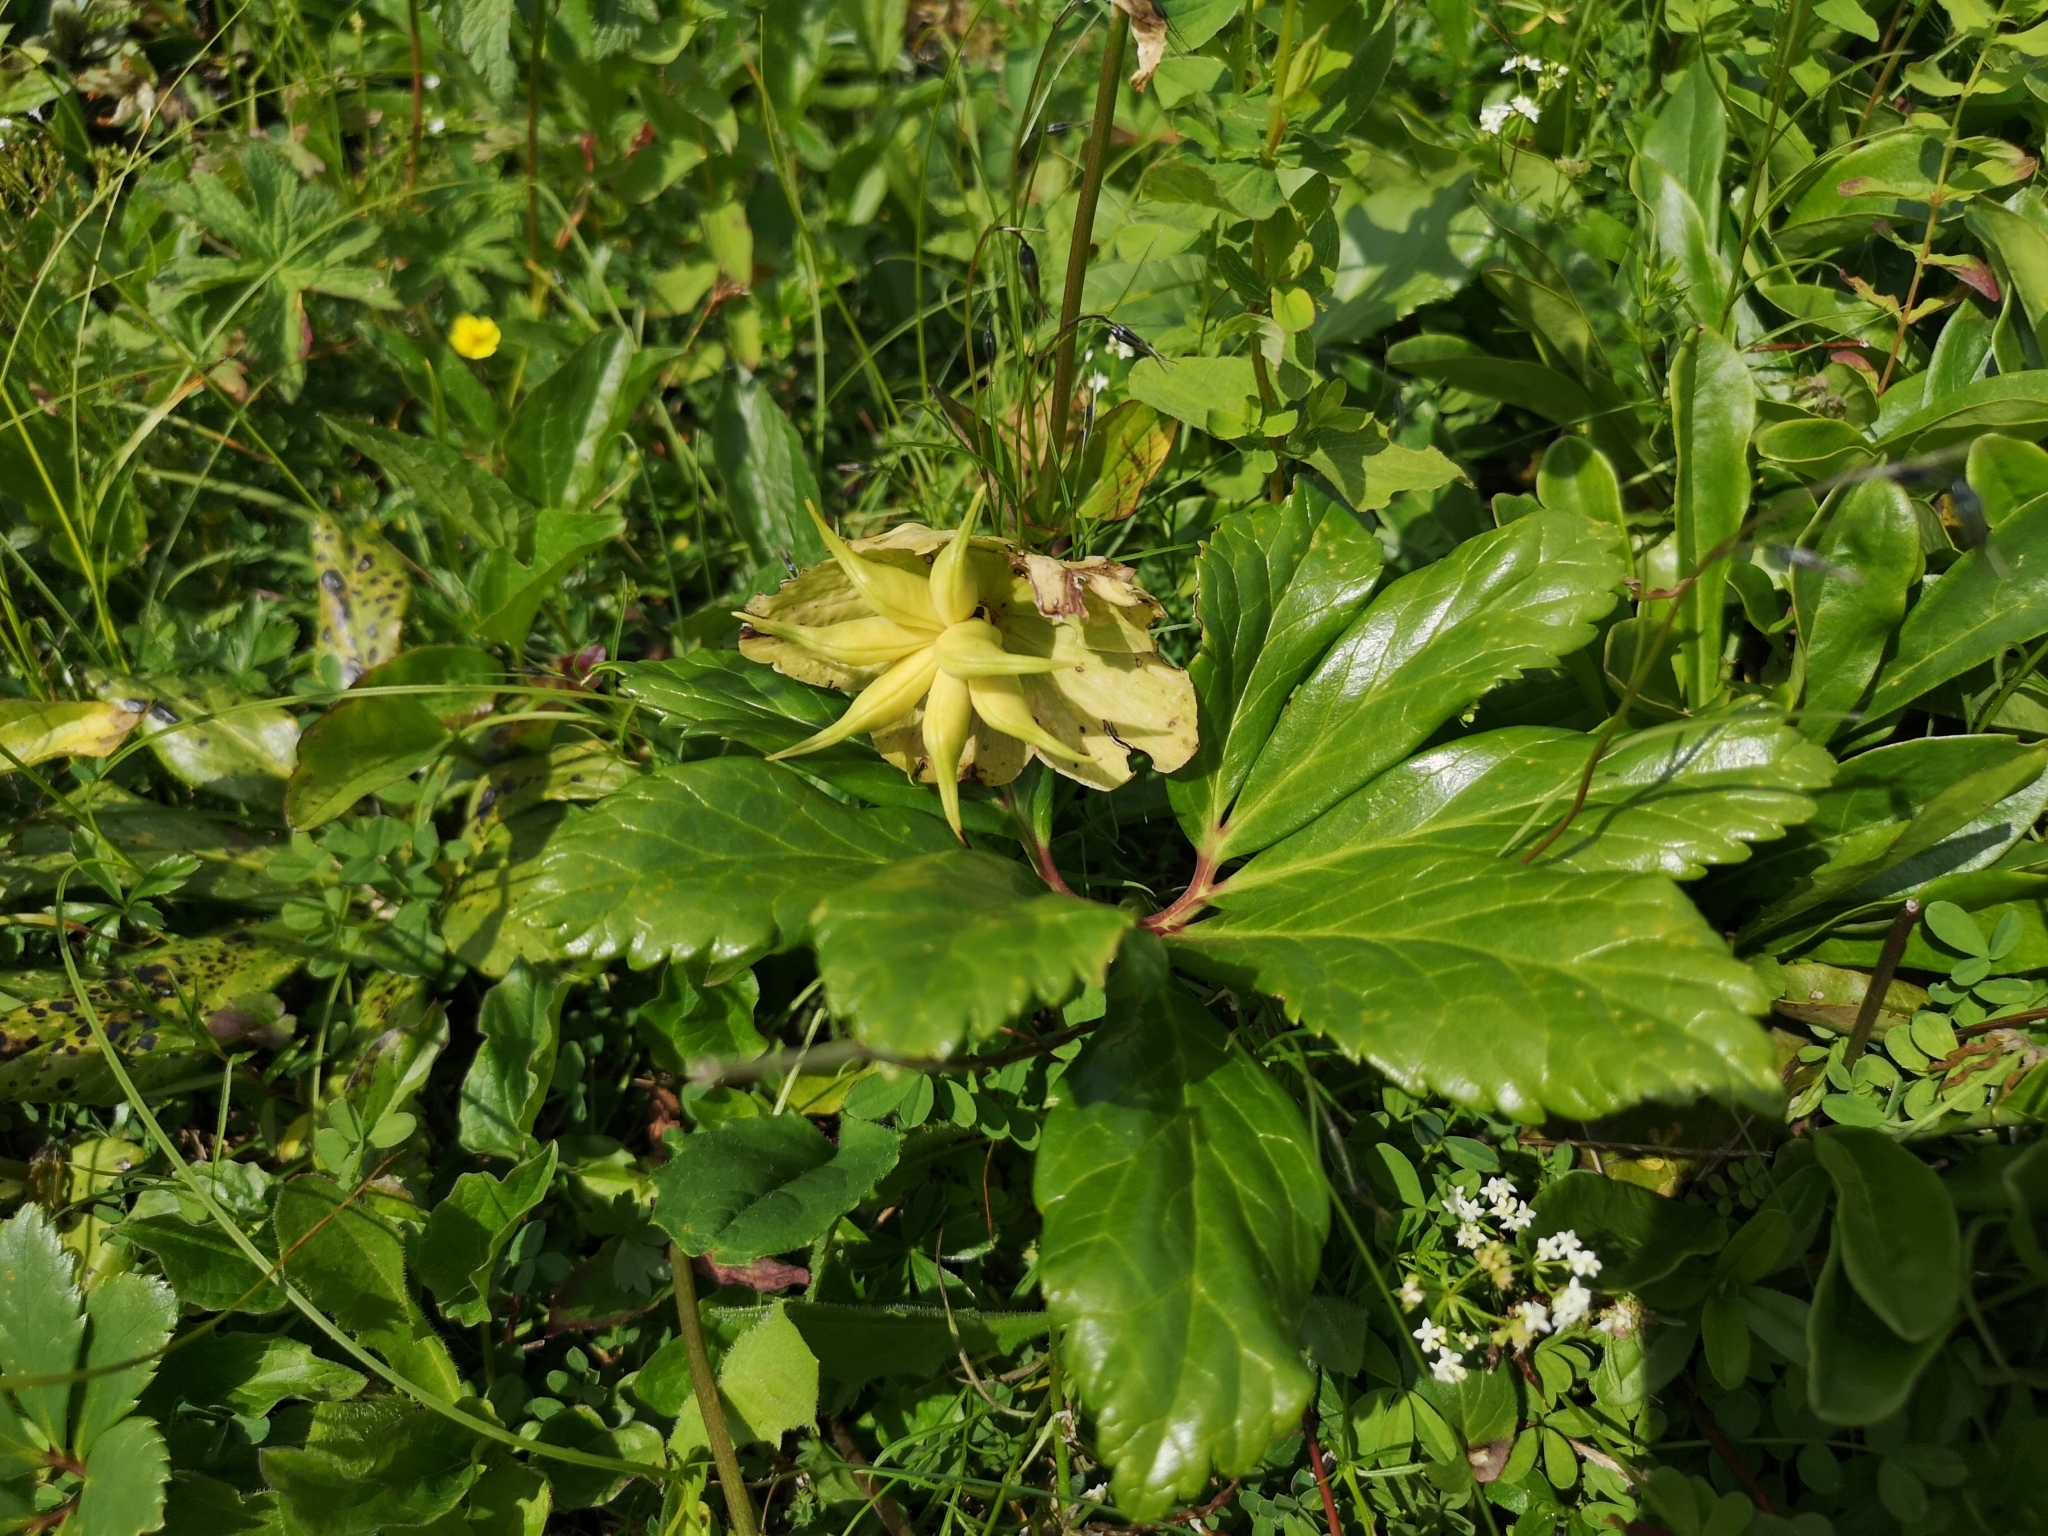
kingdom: Plantae
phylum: Tracheophyta
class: Magnoliopsida
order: Ranunculales
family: Ranunculaceae
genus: Helleborus
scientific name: Helleborus niger
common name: Black hellebore
